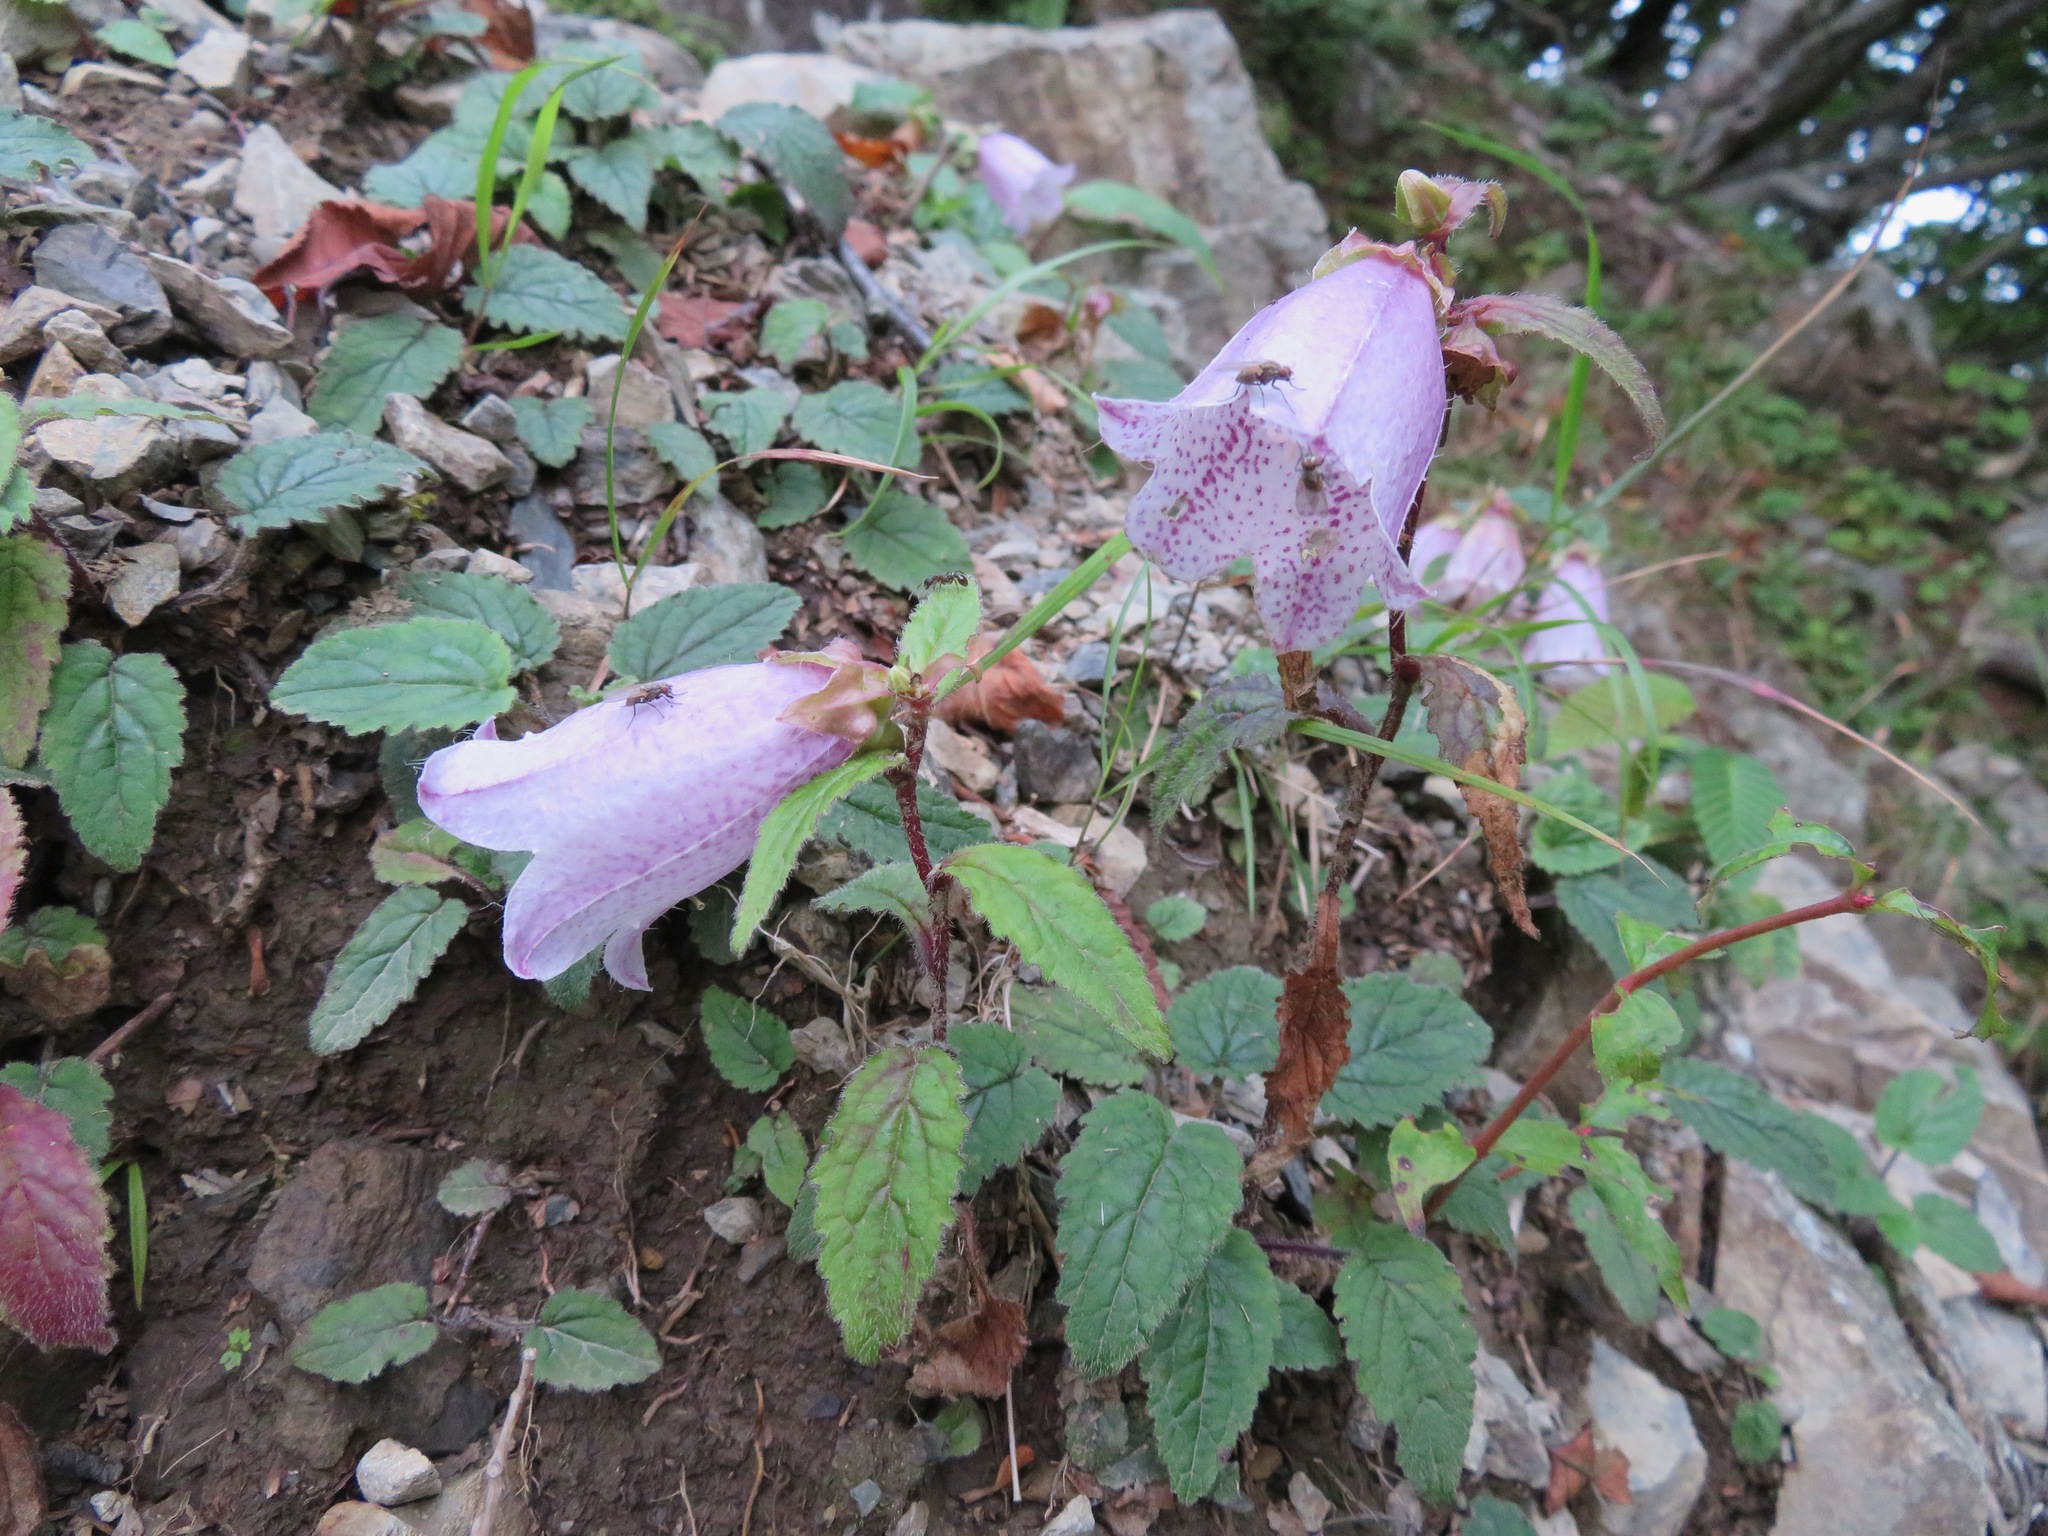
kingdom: Plantae
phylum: Tracheophyta
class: Magnoliopsida
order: Asterales
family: Campanulaceae
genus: Campanula
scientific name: Campanula punctata
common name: Spotted bellflower
